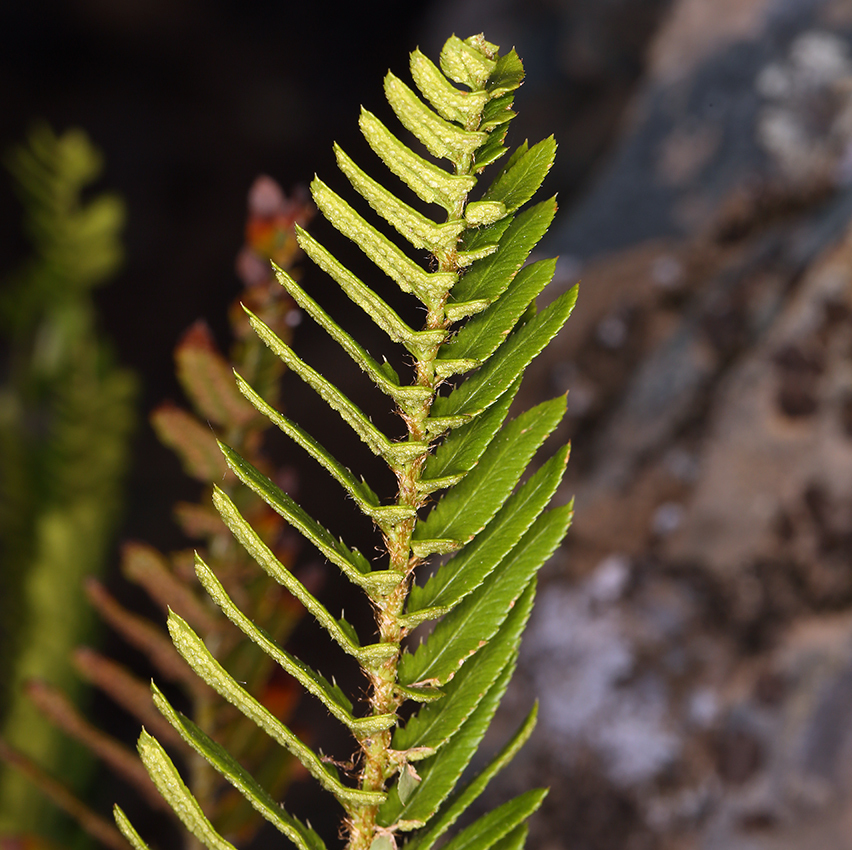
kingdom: Plantae
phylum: Tracheophyta
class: Polypodiopsida
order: Polypodiales
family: Dryopteridaceae
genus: Polystichum
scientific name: Polystichum imbricans
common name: Dwarf western sword fern
